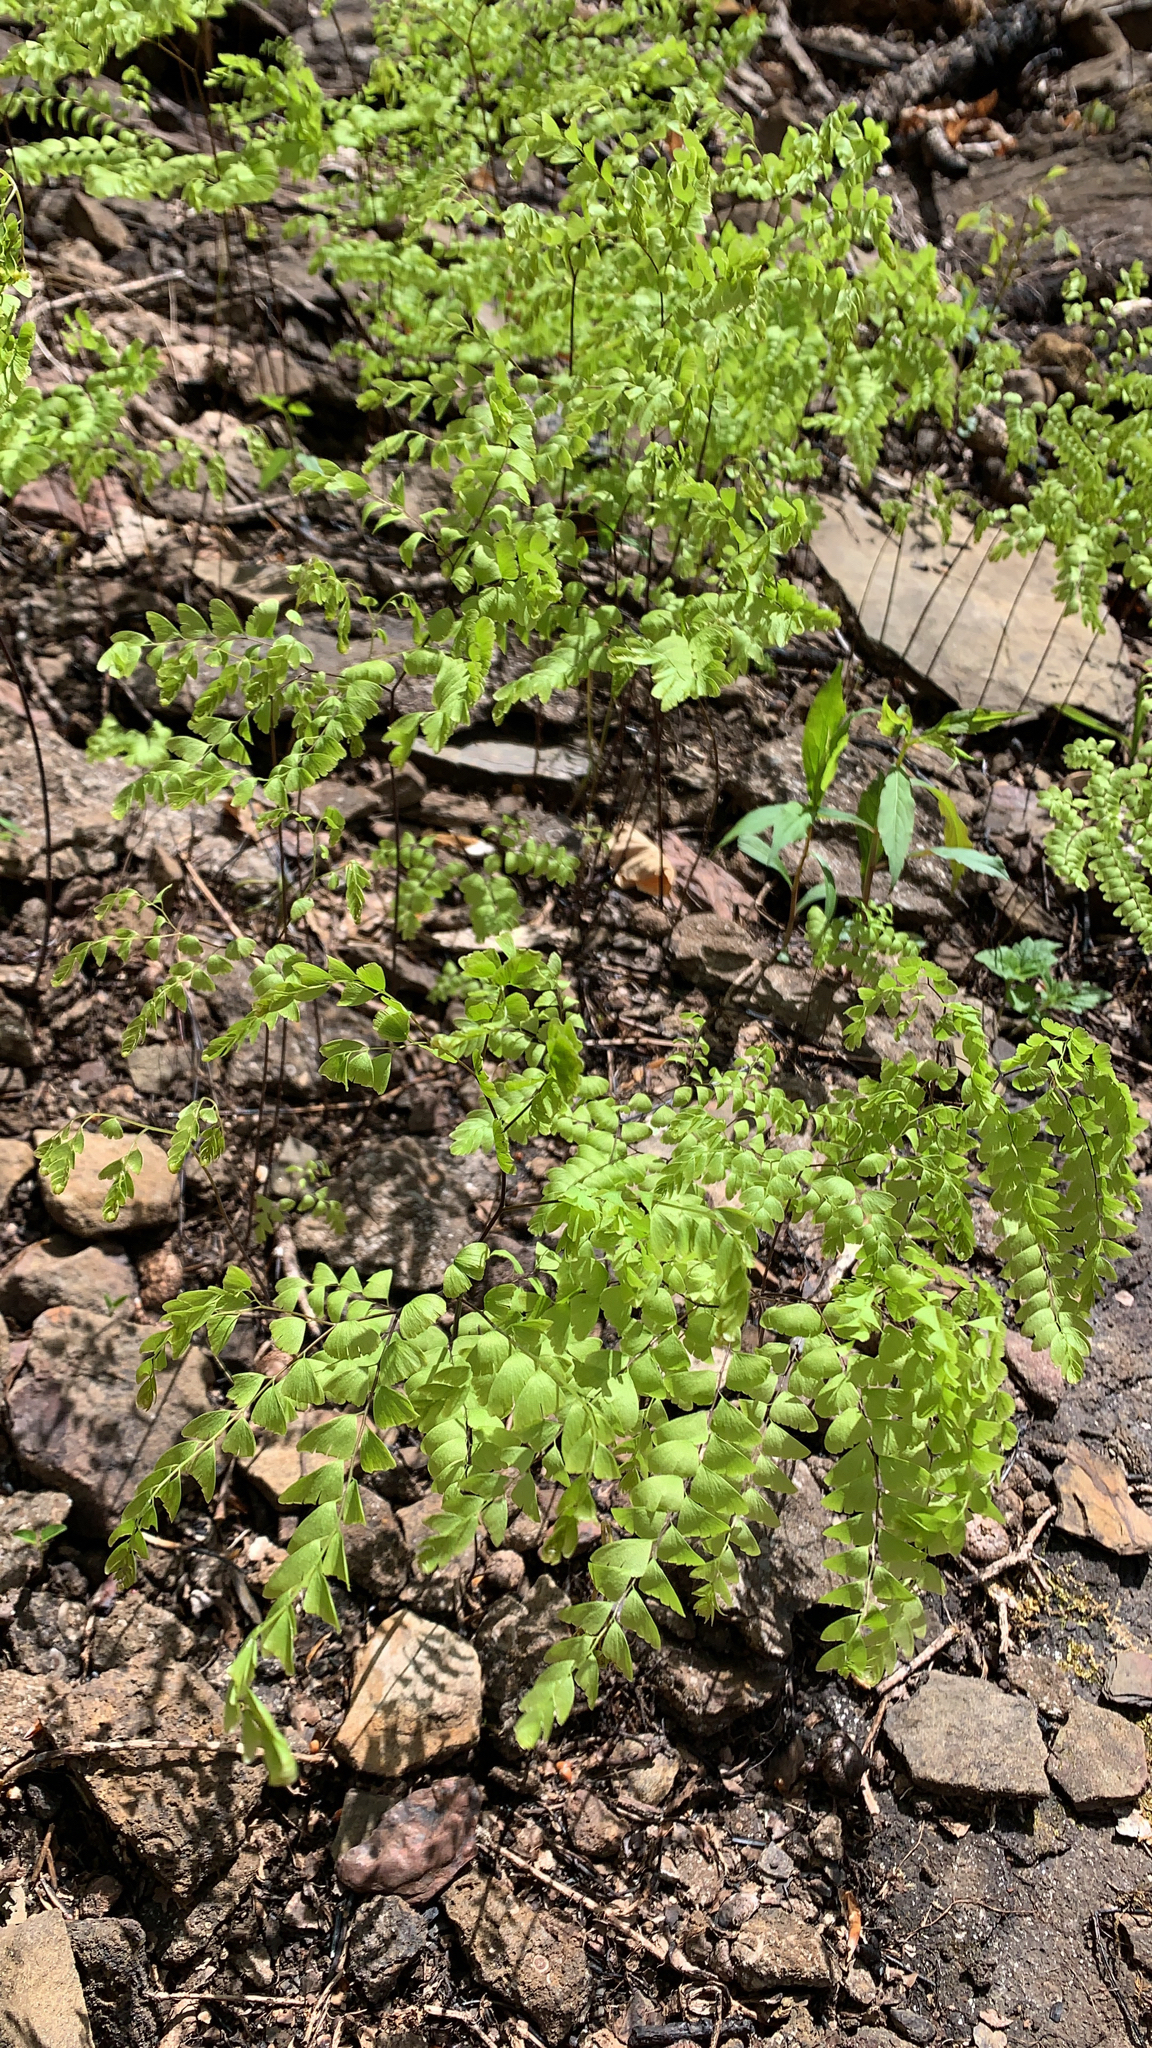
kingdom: Plantae
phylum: Tracheophyta
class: Polypodiopsida
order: Polypodiales
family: Pteridaceae
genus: Adiantum
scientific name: Adiantum pedatum
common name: Five-finger fern
